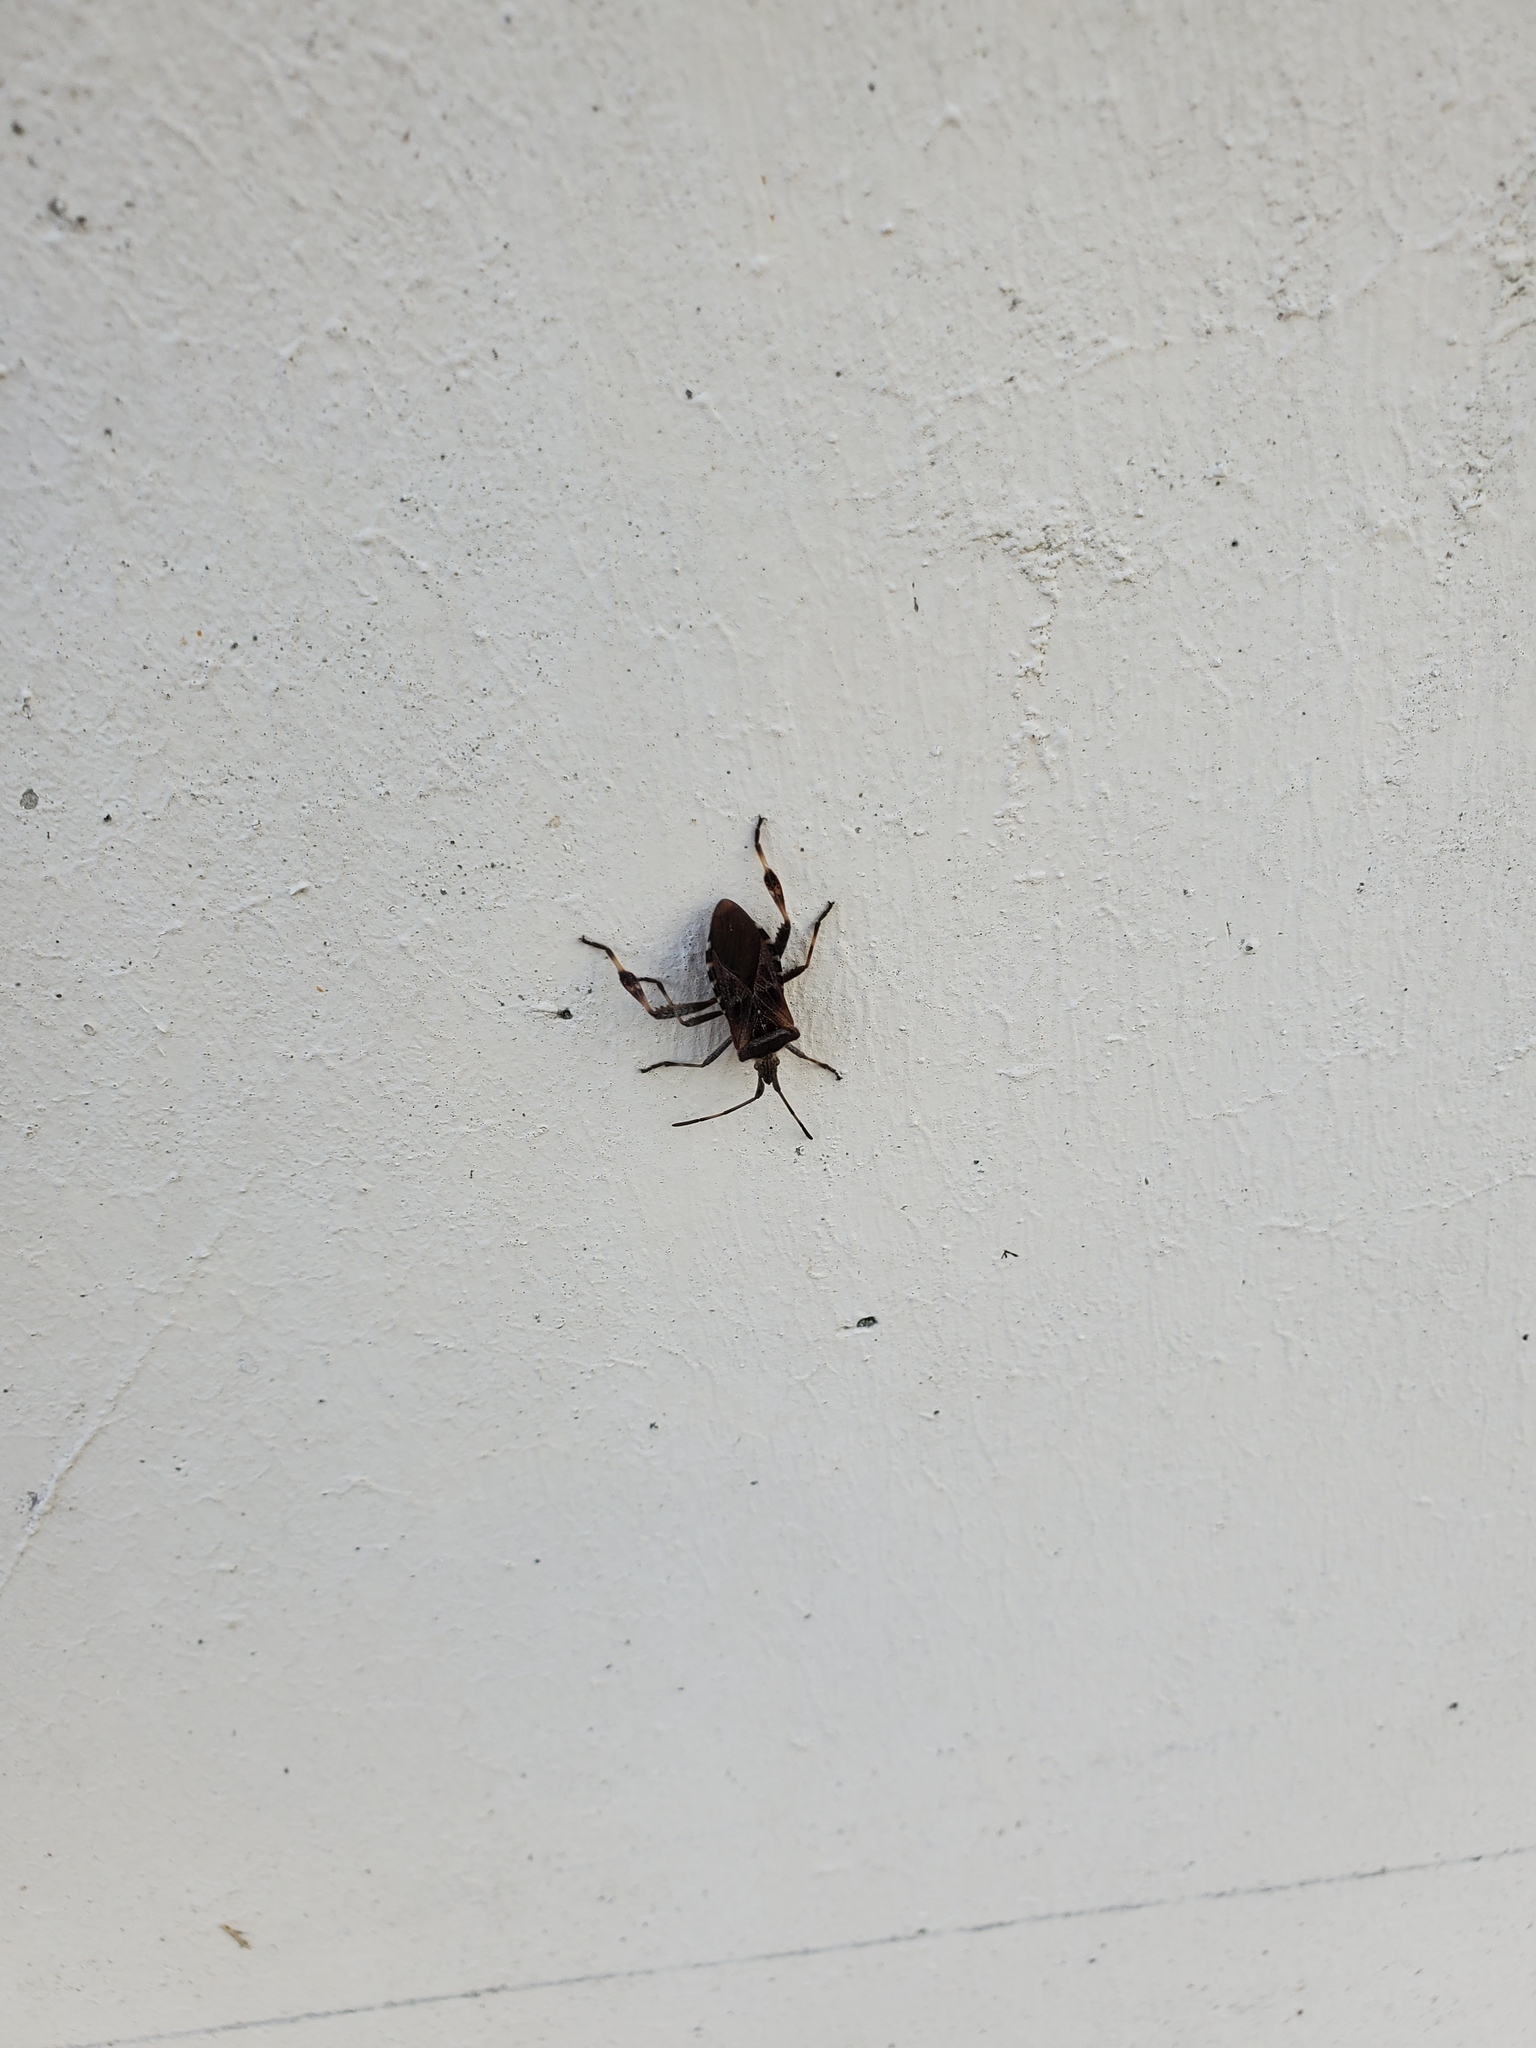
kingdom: Animalia
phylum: Arthropoda
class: Insecta
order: Hemiptera
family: Coreidae
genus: Leptoglossus
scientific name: Leptoglossus occidentalis
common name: Western conifer-seed bug
